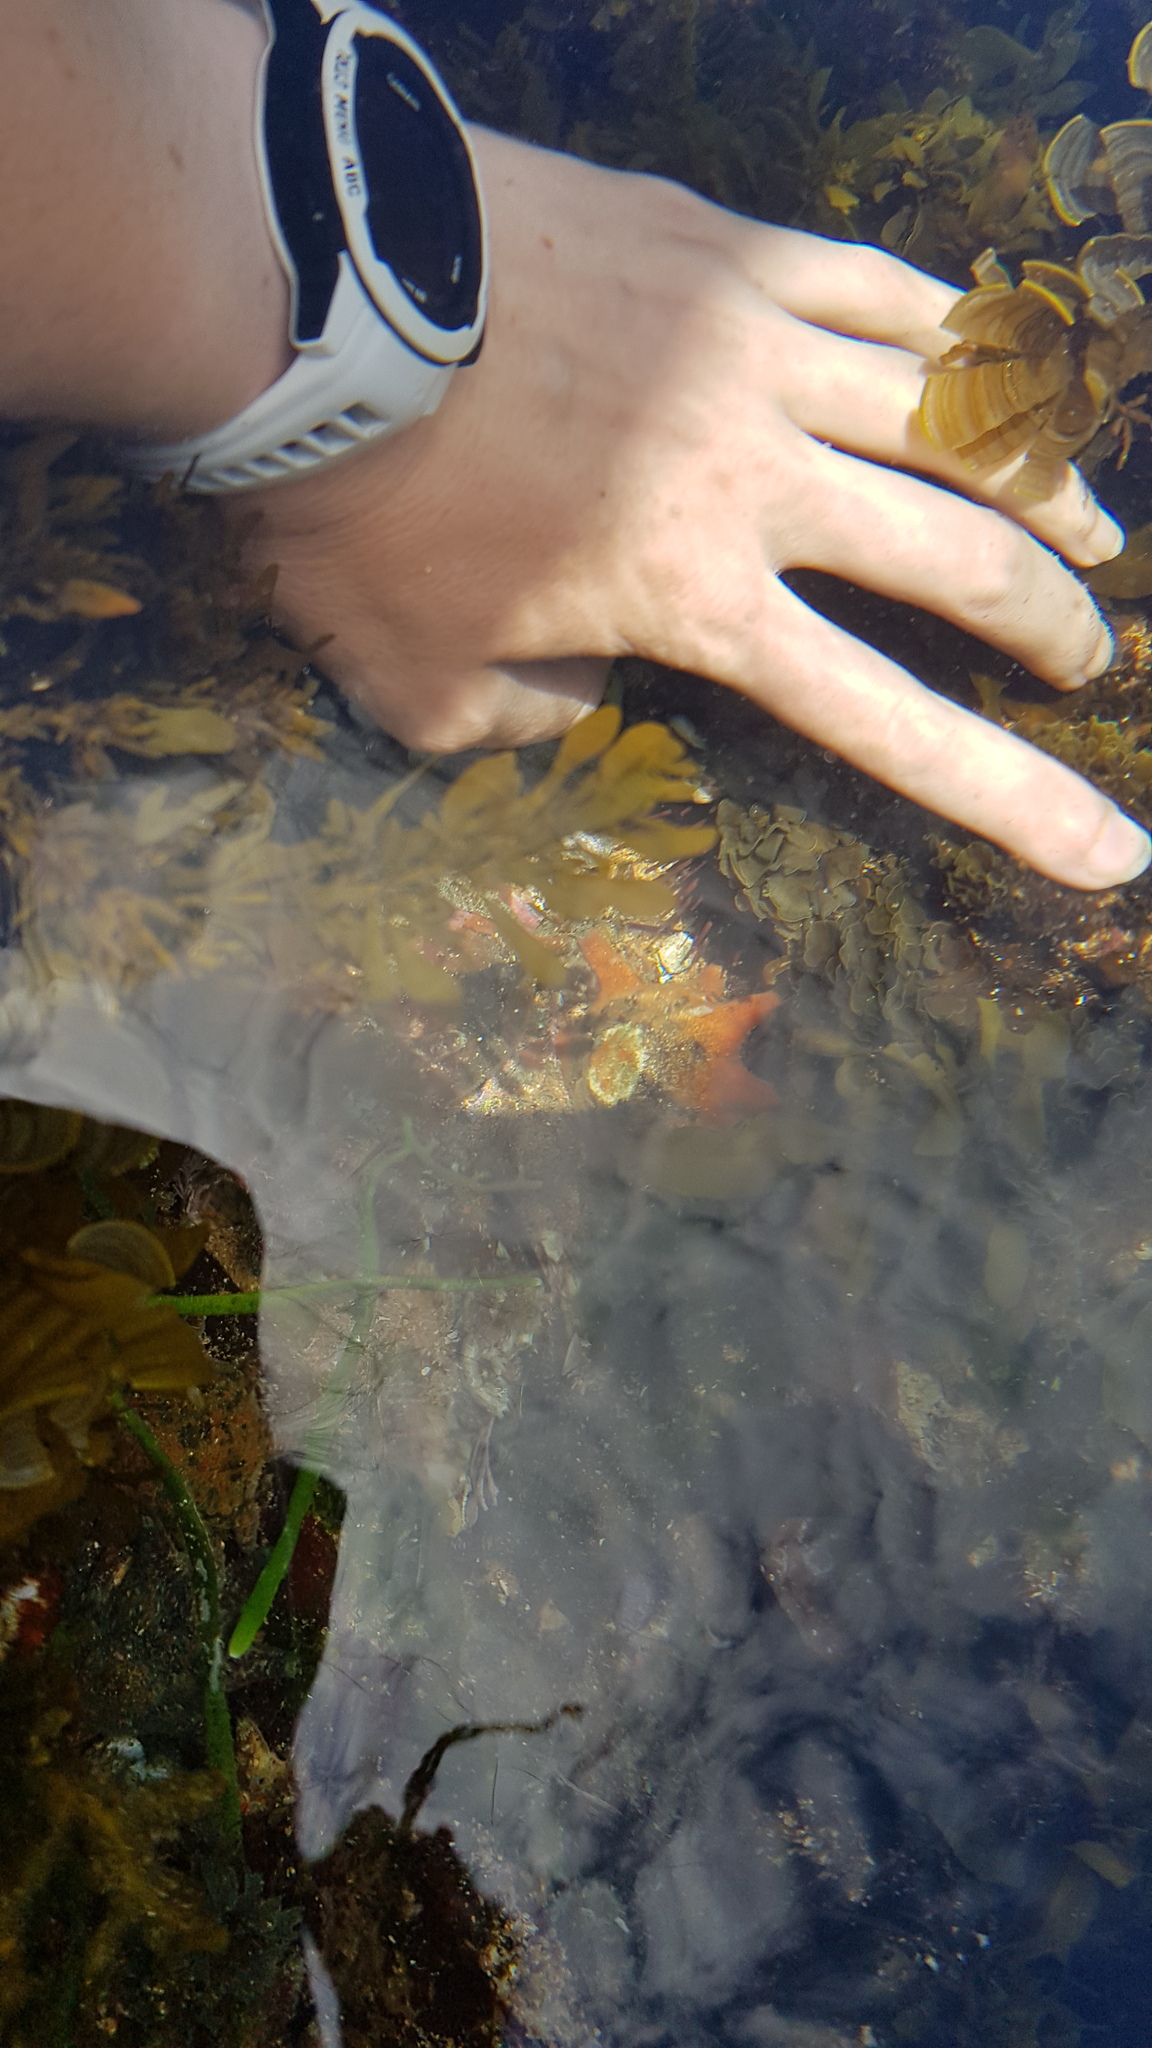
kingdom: Animalia
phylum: Echinodermata
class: Asteroidea
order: Valvatida
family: Asterinidae
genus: Meridiastra
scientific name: Meridiastra calcar
